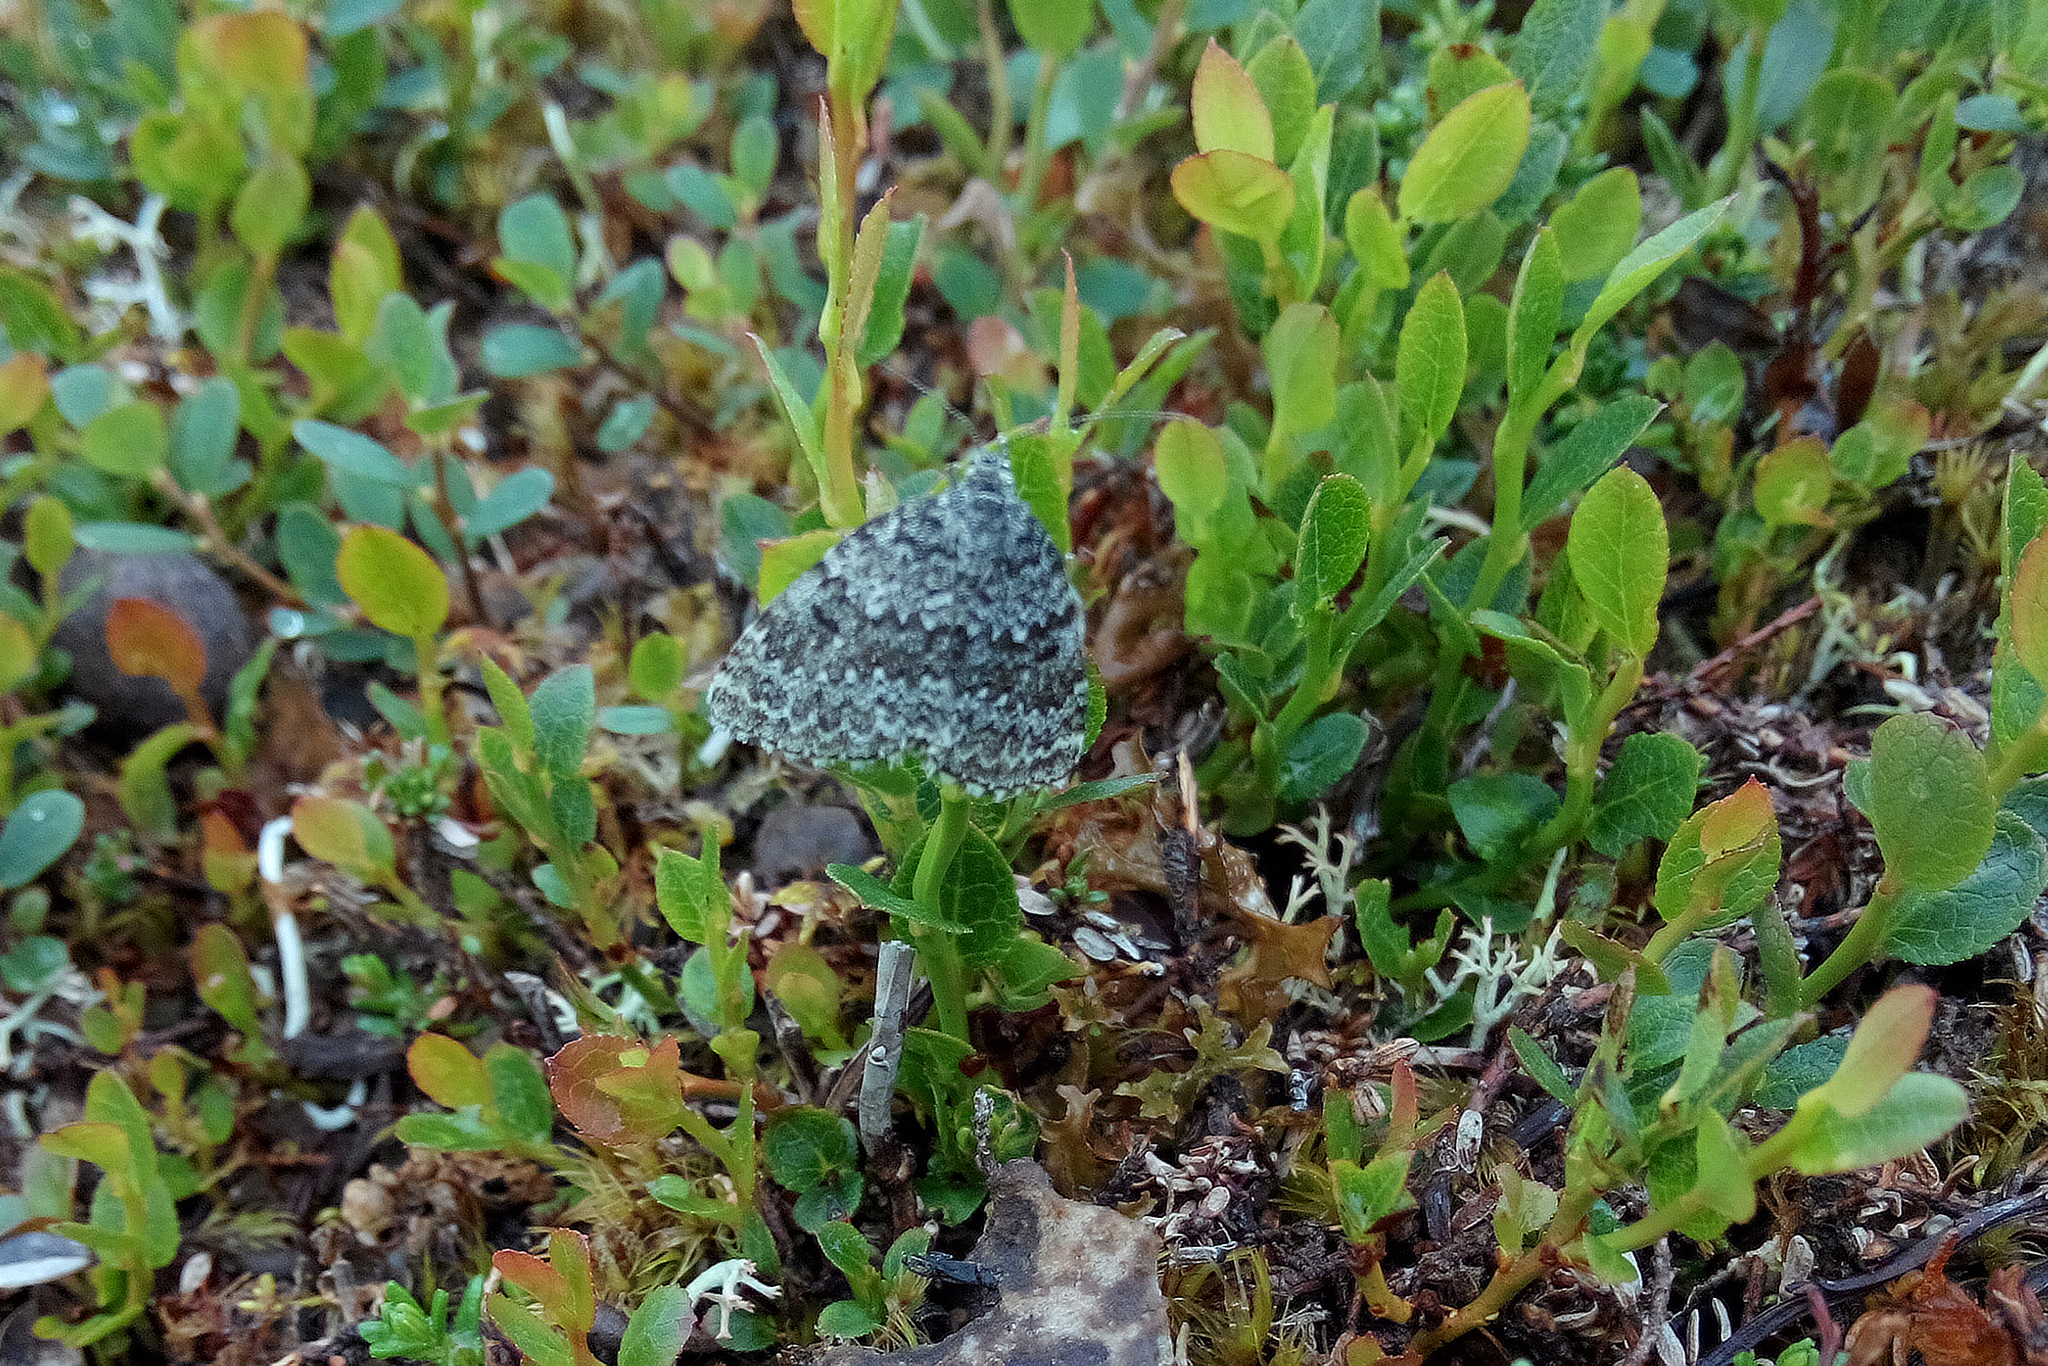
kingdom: Animalia
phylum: Arthropoda
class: Insecta
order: Lepidoptera
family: Geometridae
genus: Entephria
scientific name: Entephria polata
